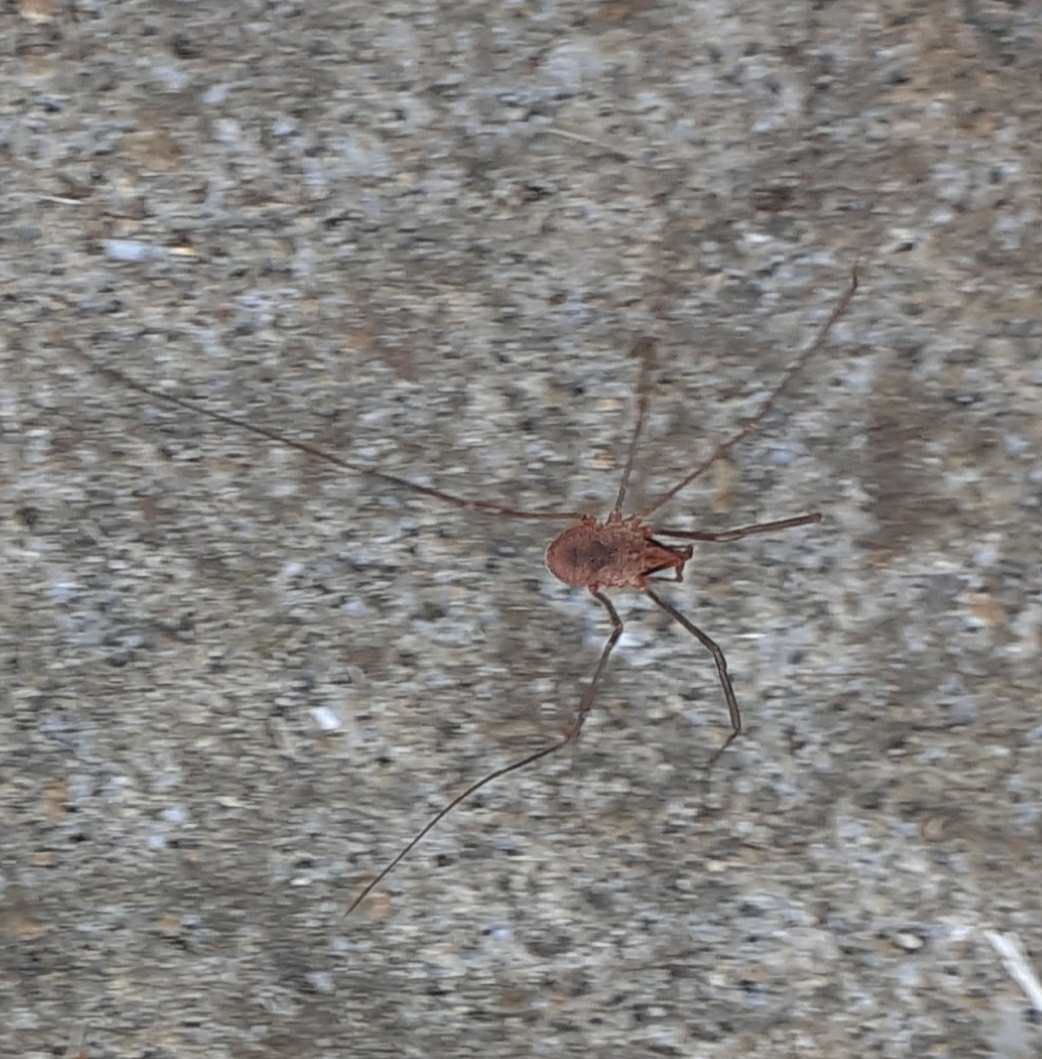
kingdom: Animalia
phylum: Arthropoda
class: Arachnida
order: Opiliones
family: Phalangiidae
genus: Phalangium
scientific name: Phalangium opilio
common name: Daddy longleg
